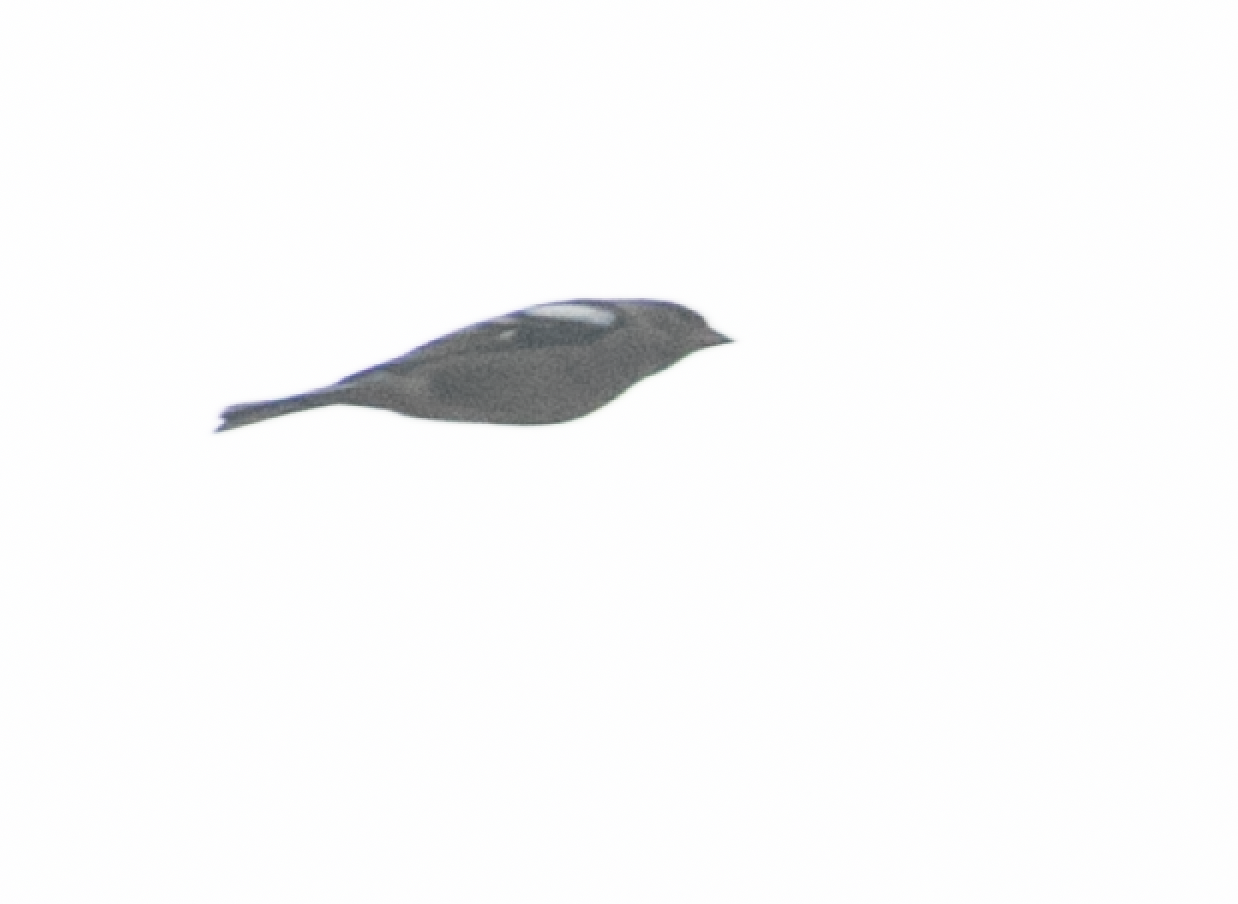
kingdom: Animalia
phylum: Chordata
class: Aves
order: Passeriformes
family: Fringillidae
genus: Fringilla
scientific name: Fringilla coelebs
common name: Common chaffinch
